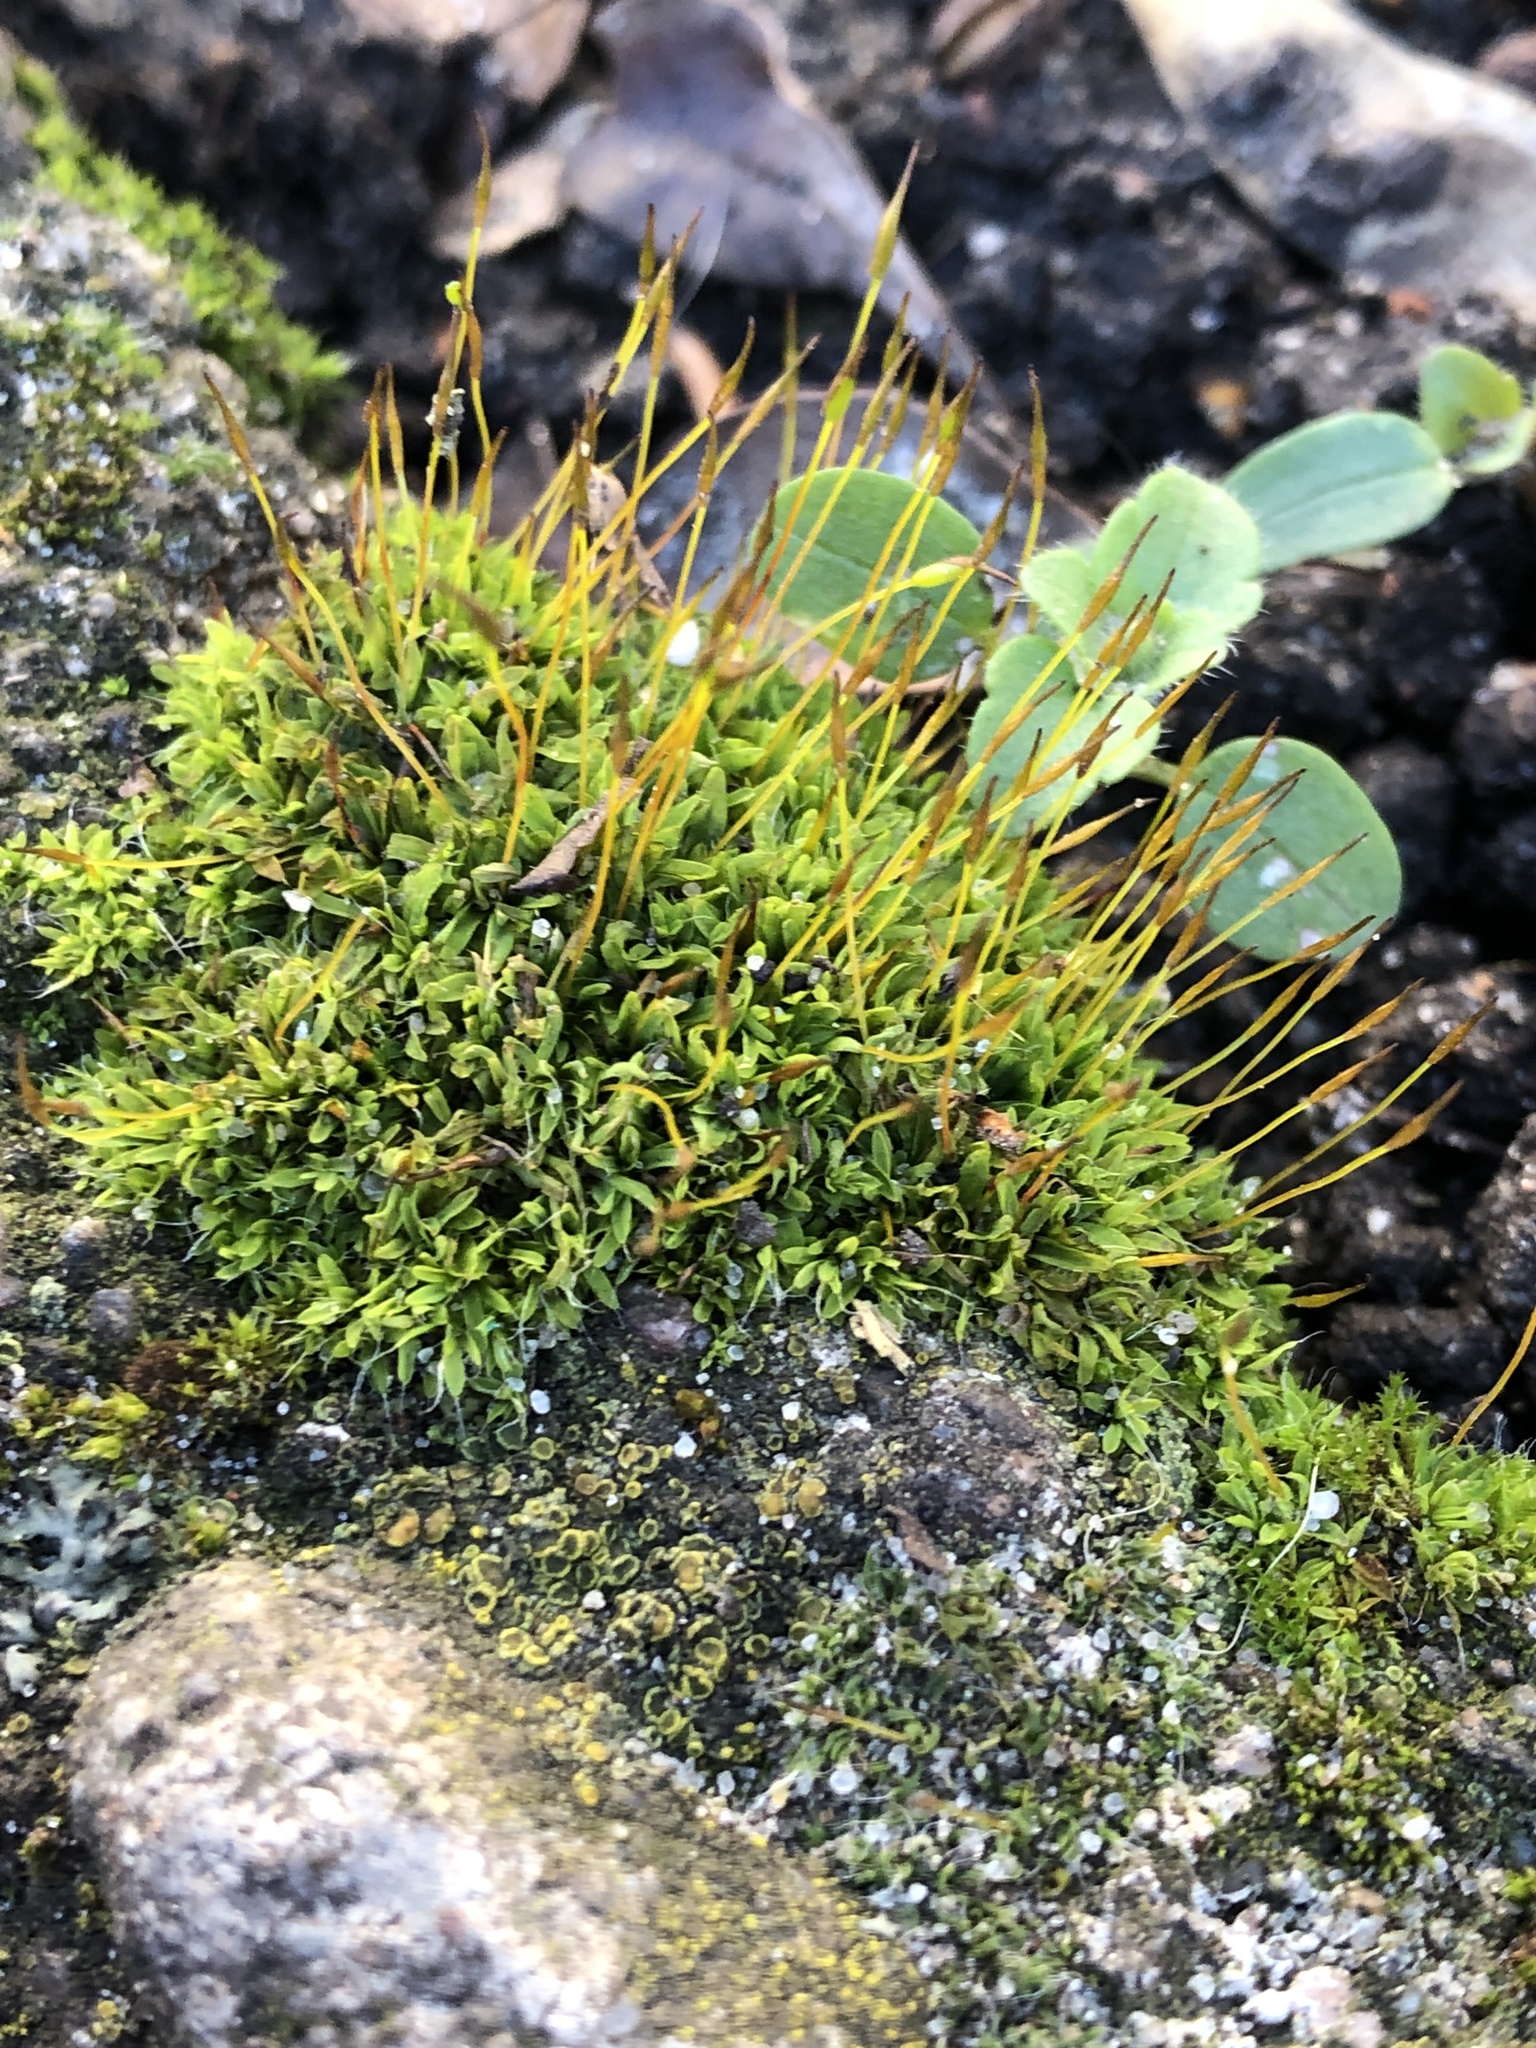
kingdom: Plantae
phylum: Bryophyta
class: Bryopsida
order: Pottiales
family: Pottiaceae
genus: Tortula
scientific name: Tortula muralis
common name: Wall screw-moss
